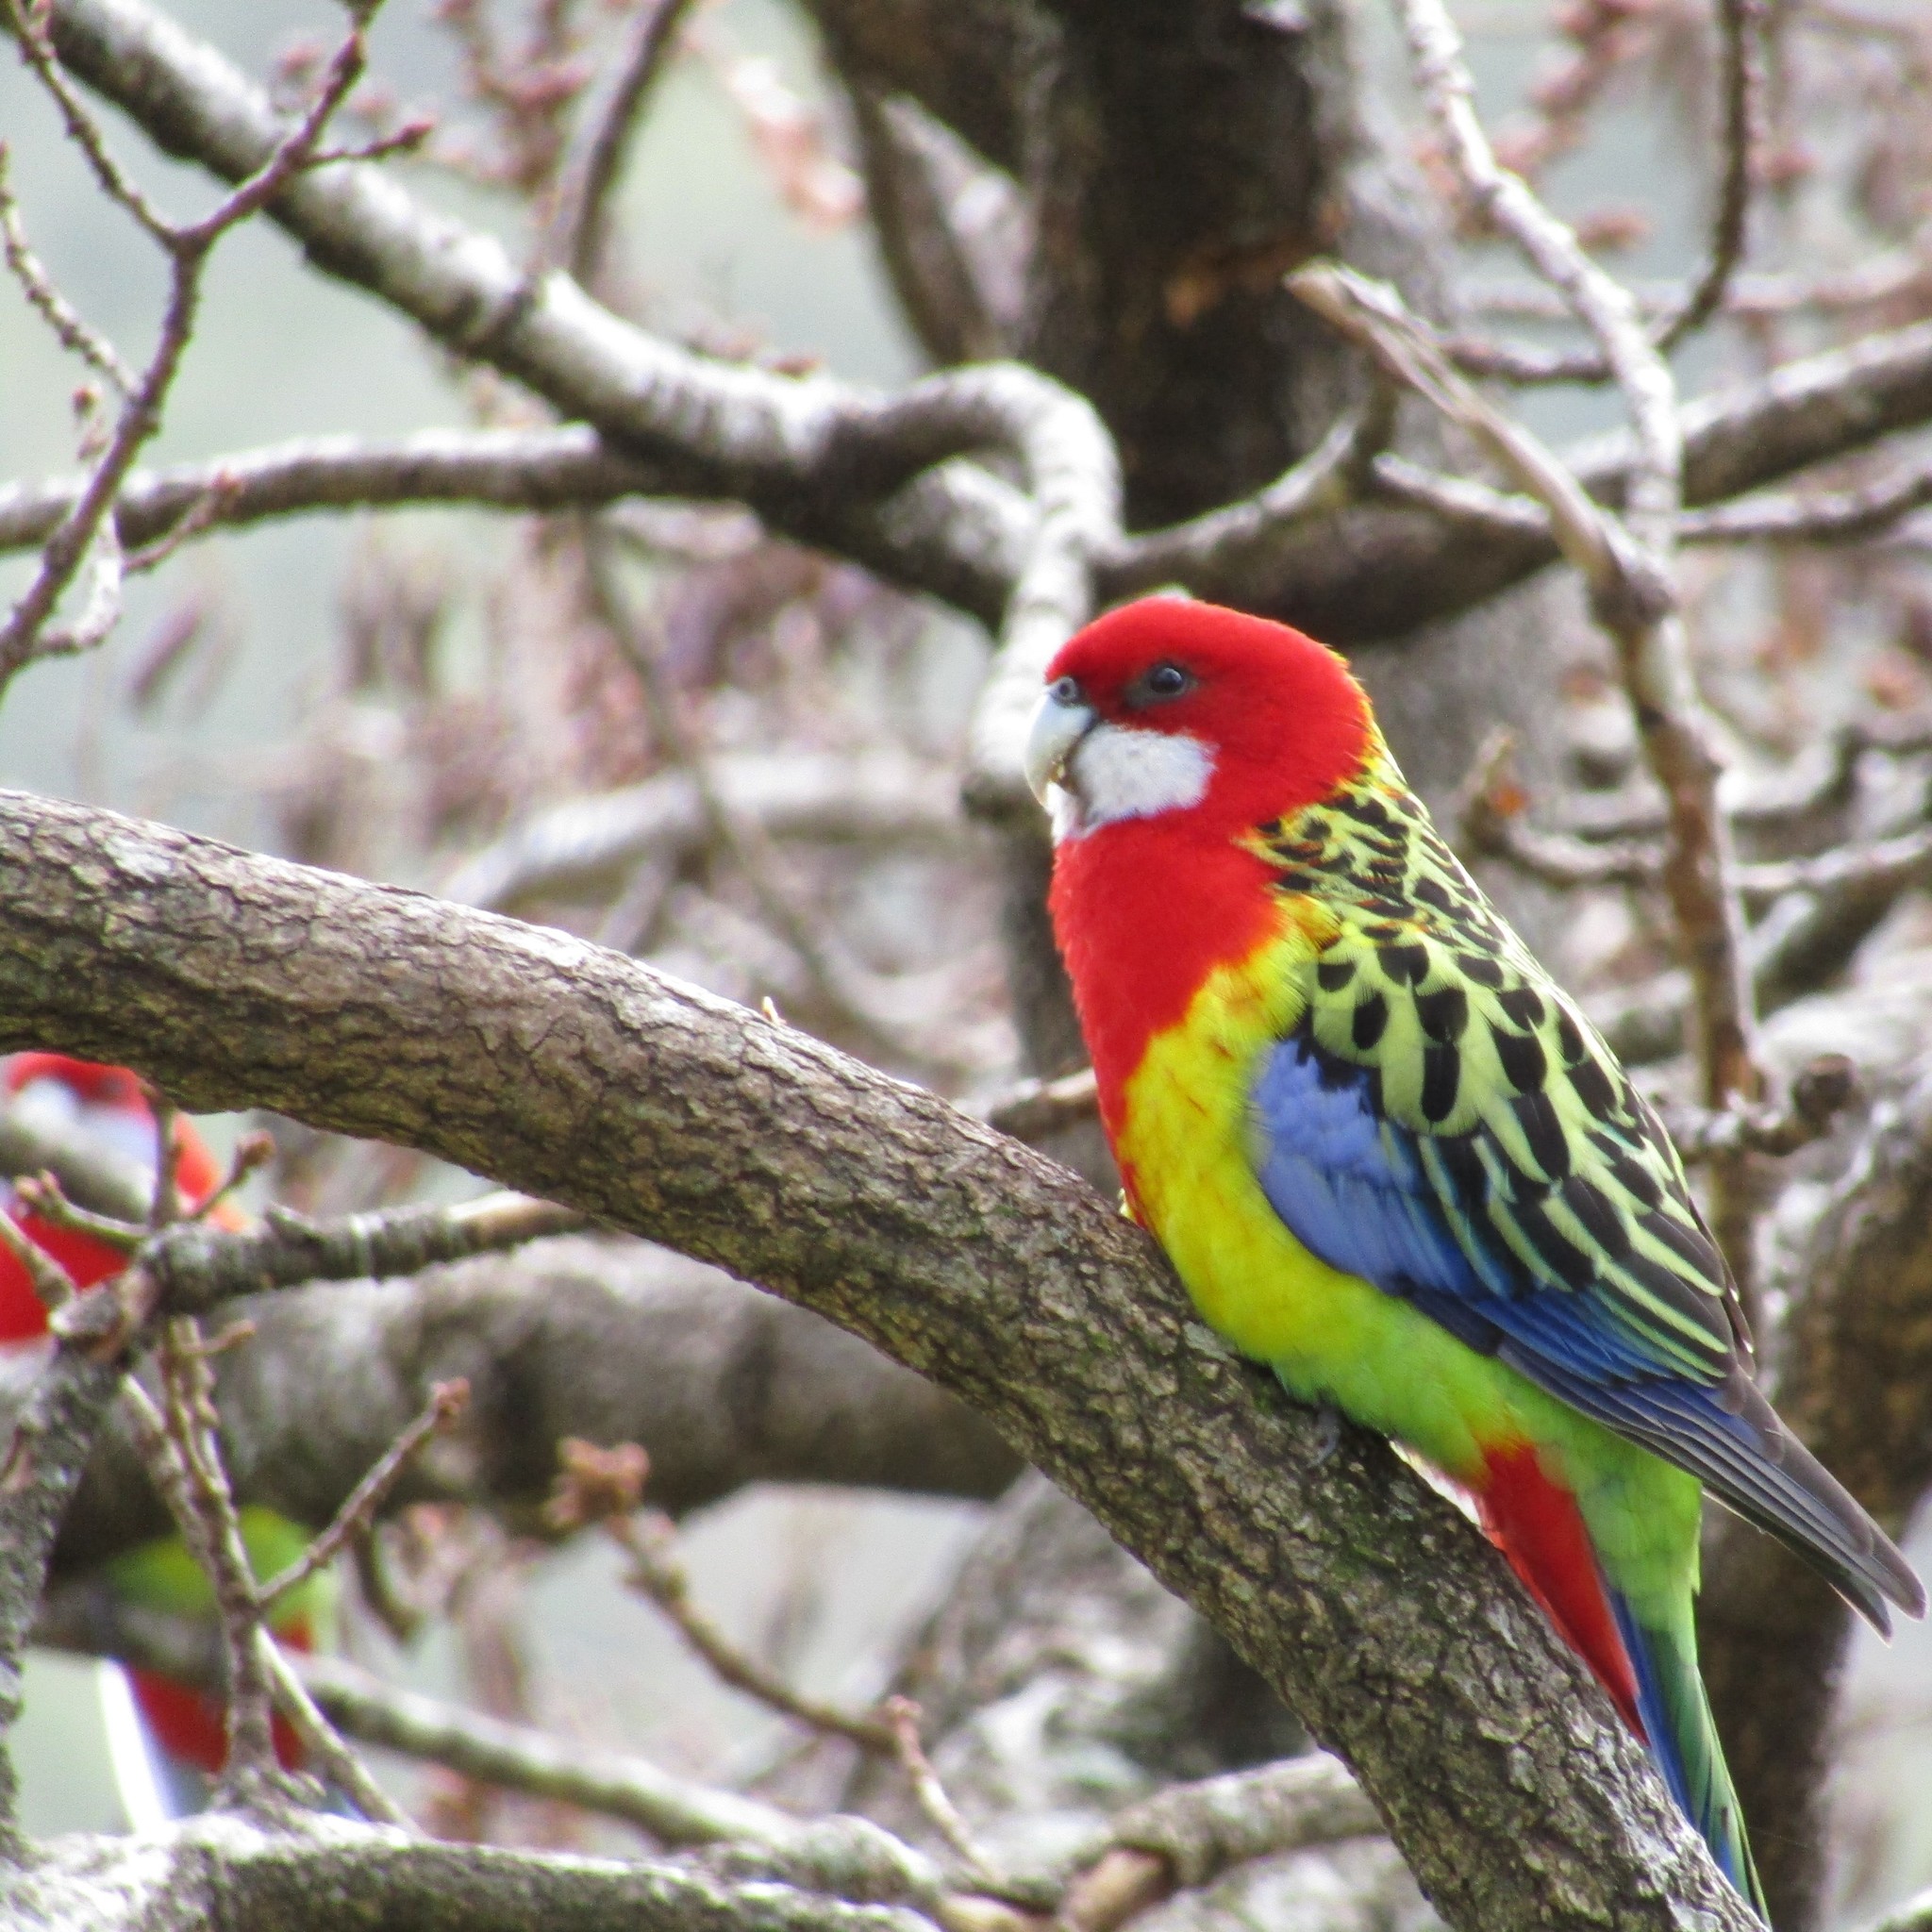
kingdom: Animalia
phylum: Chordata
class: Aves
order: Psittaciformes
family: Psittacidae
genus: Platycercus
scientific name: Platycercus eximius
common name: Eastern rosella
